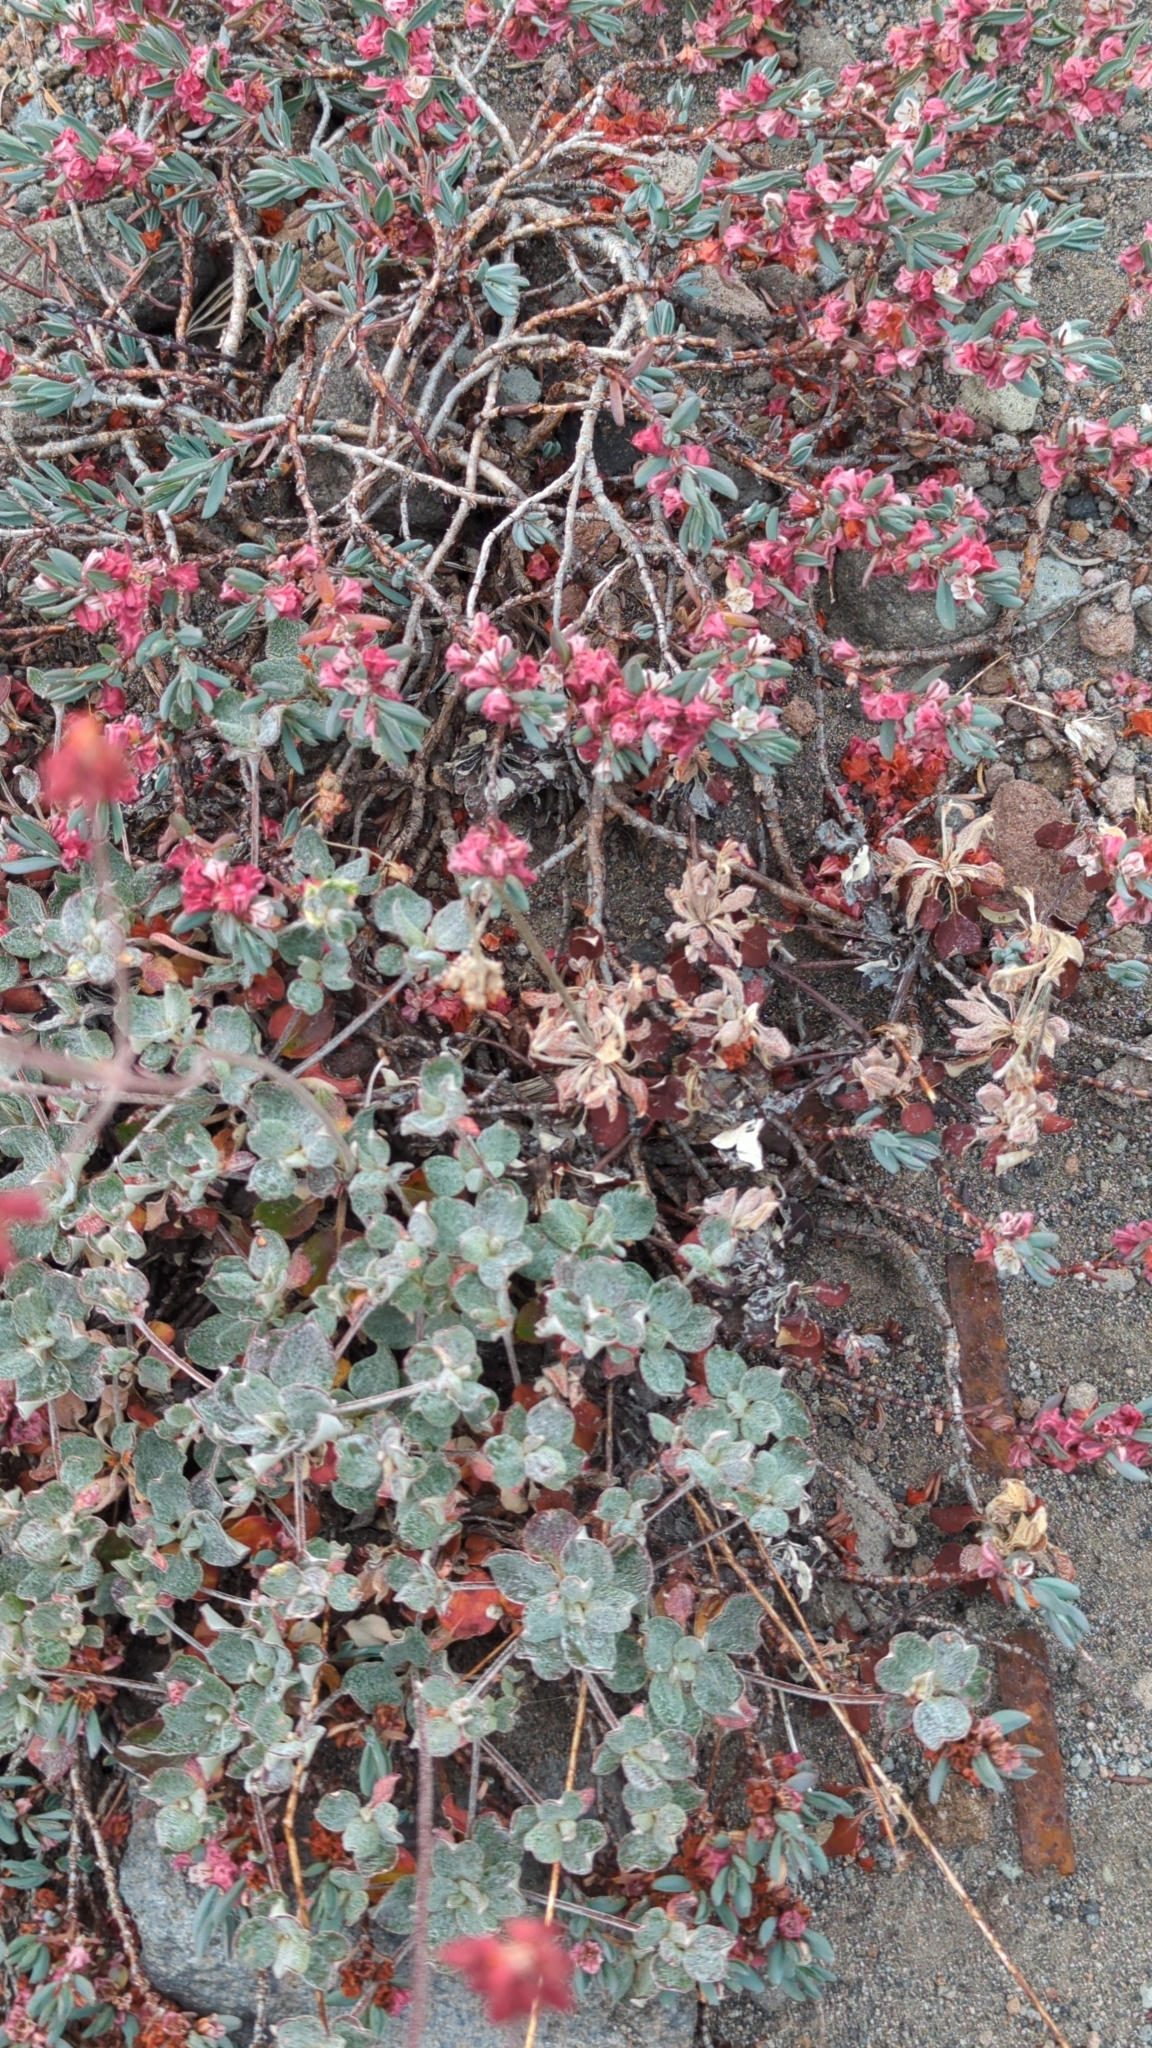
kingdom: Plantae
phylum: Tracheophyta
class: Magnoliopsida
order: Caryophyllales
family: Polygonaceae
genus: Polygonum
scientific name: Polygonum shastense
